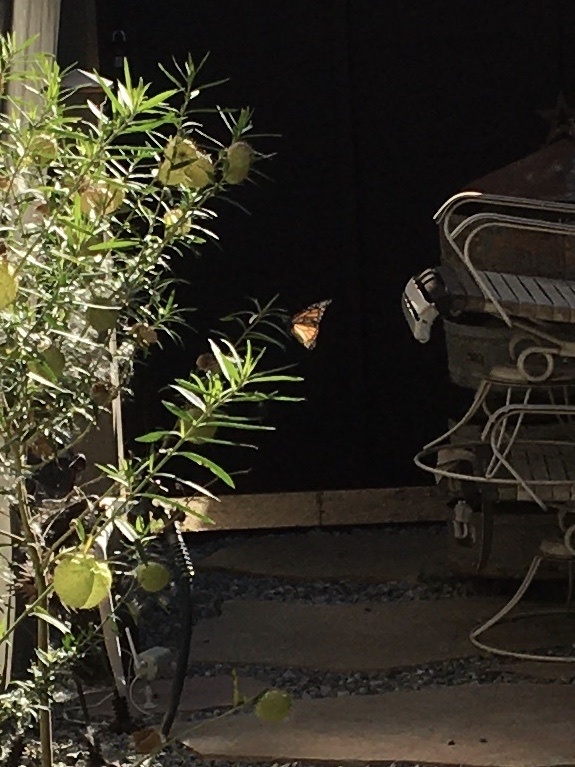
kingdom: Animalia
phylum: Arthropoda
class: Insecta
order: Lepidoptera
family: Nymphalidae
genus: Danaus
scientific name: Danaus plexippus
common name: Monarch
